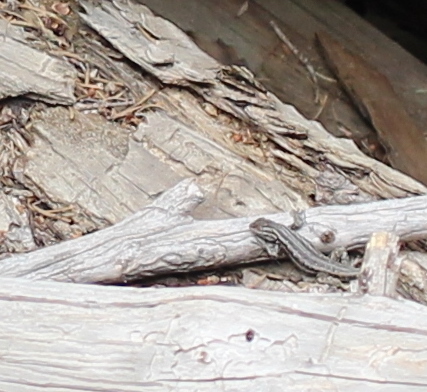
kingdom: Animalia
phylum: Chordata
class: Squamata
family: Phrynosomatidae
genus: Sceloporus
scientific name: Sceloporus graciosus
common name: Sagebrush lizard
